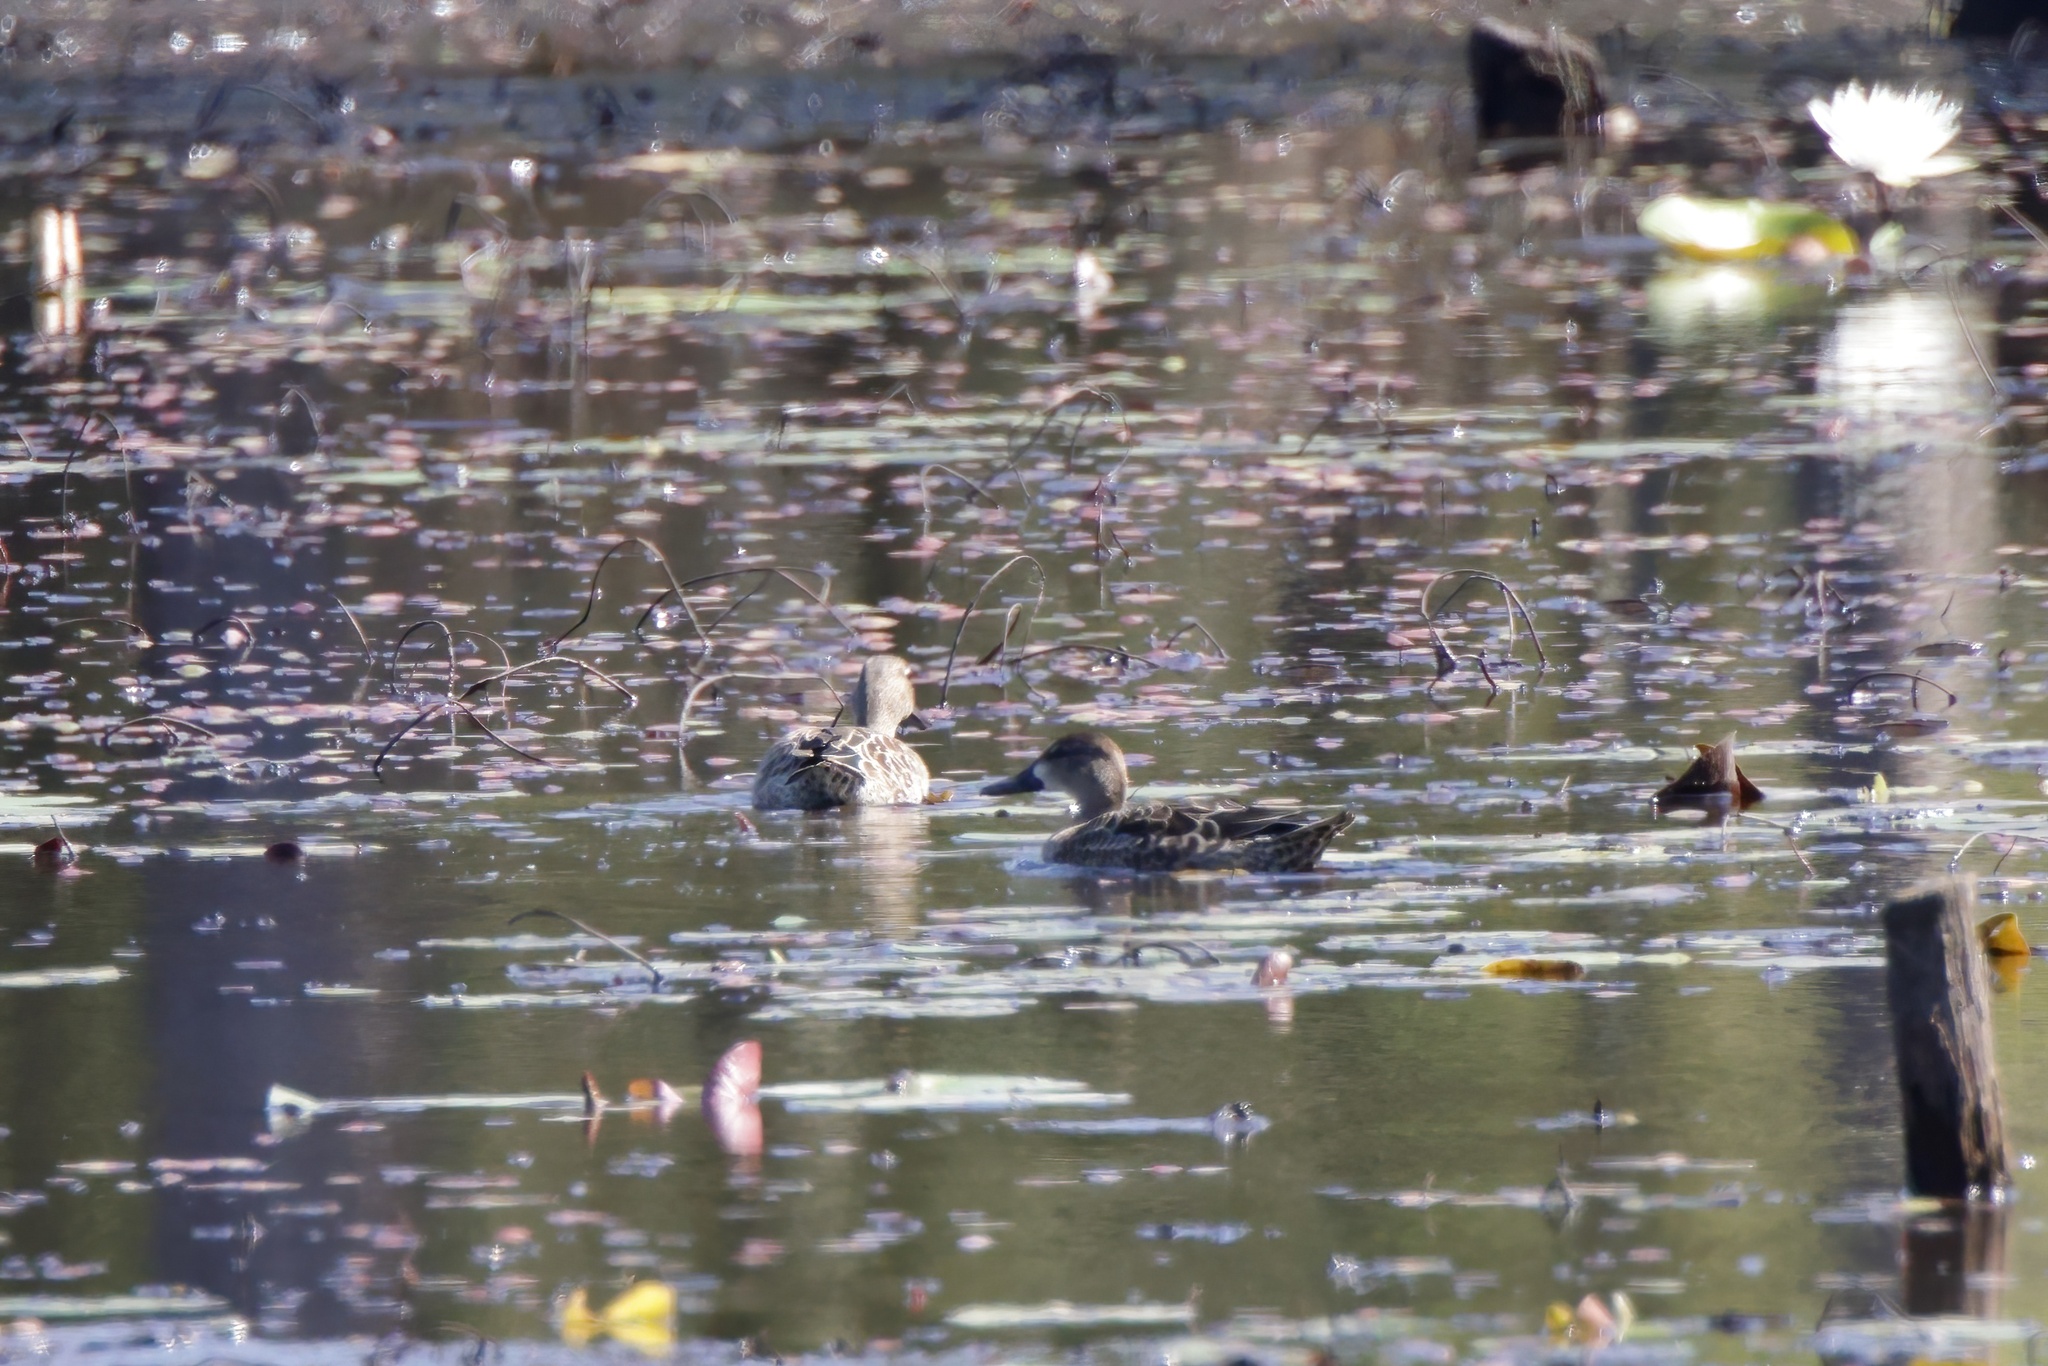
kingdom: Animalia
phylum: Chordata
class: Aves
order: Anseriformes
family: Anatidae
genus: Spatula
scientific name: Spatula discors
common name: Blue-winged teal
